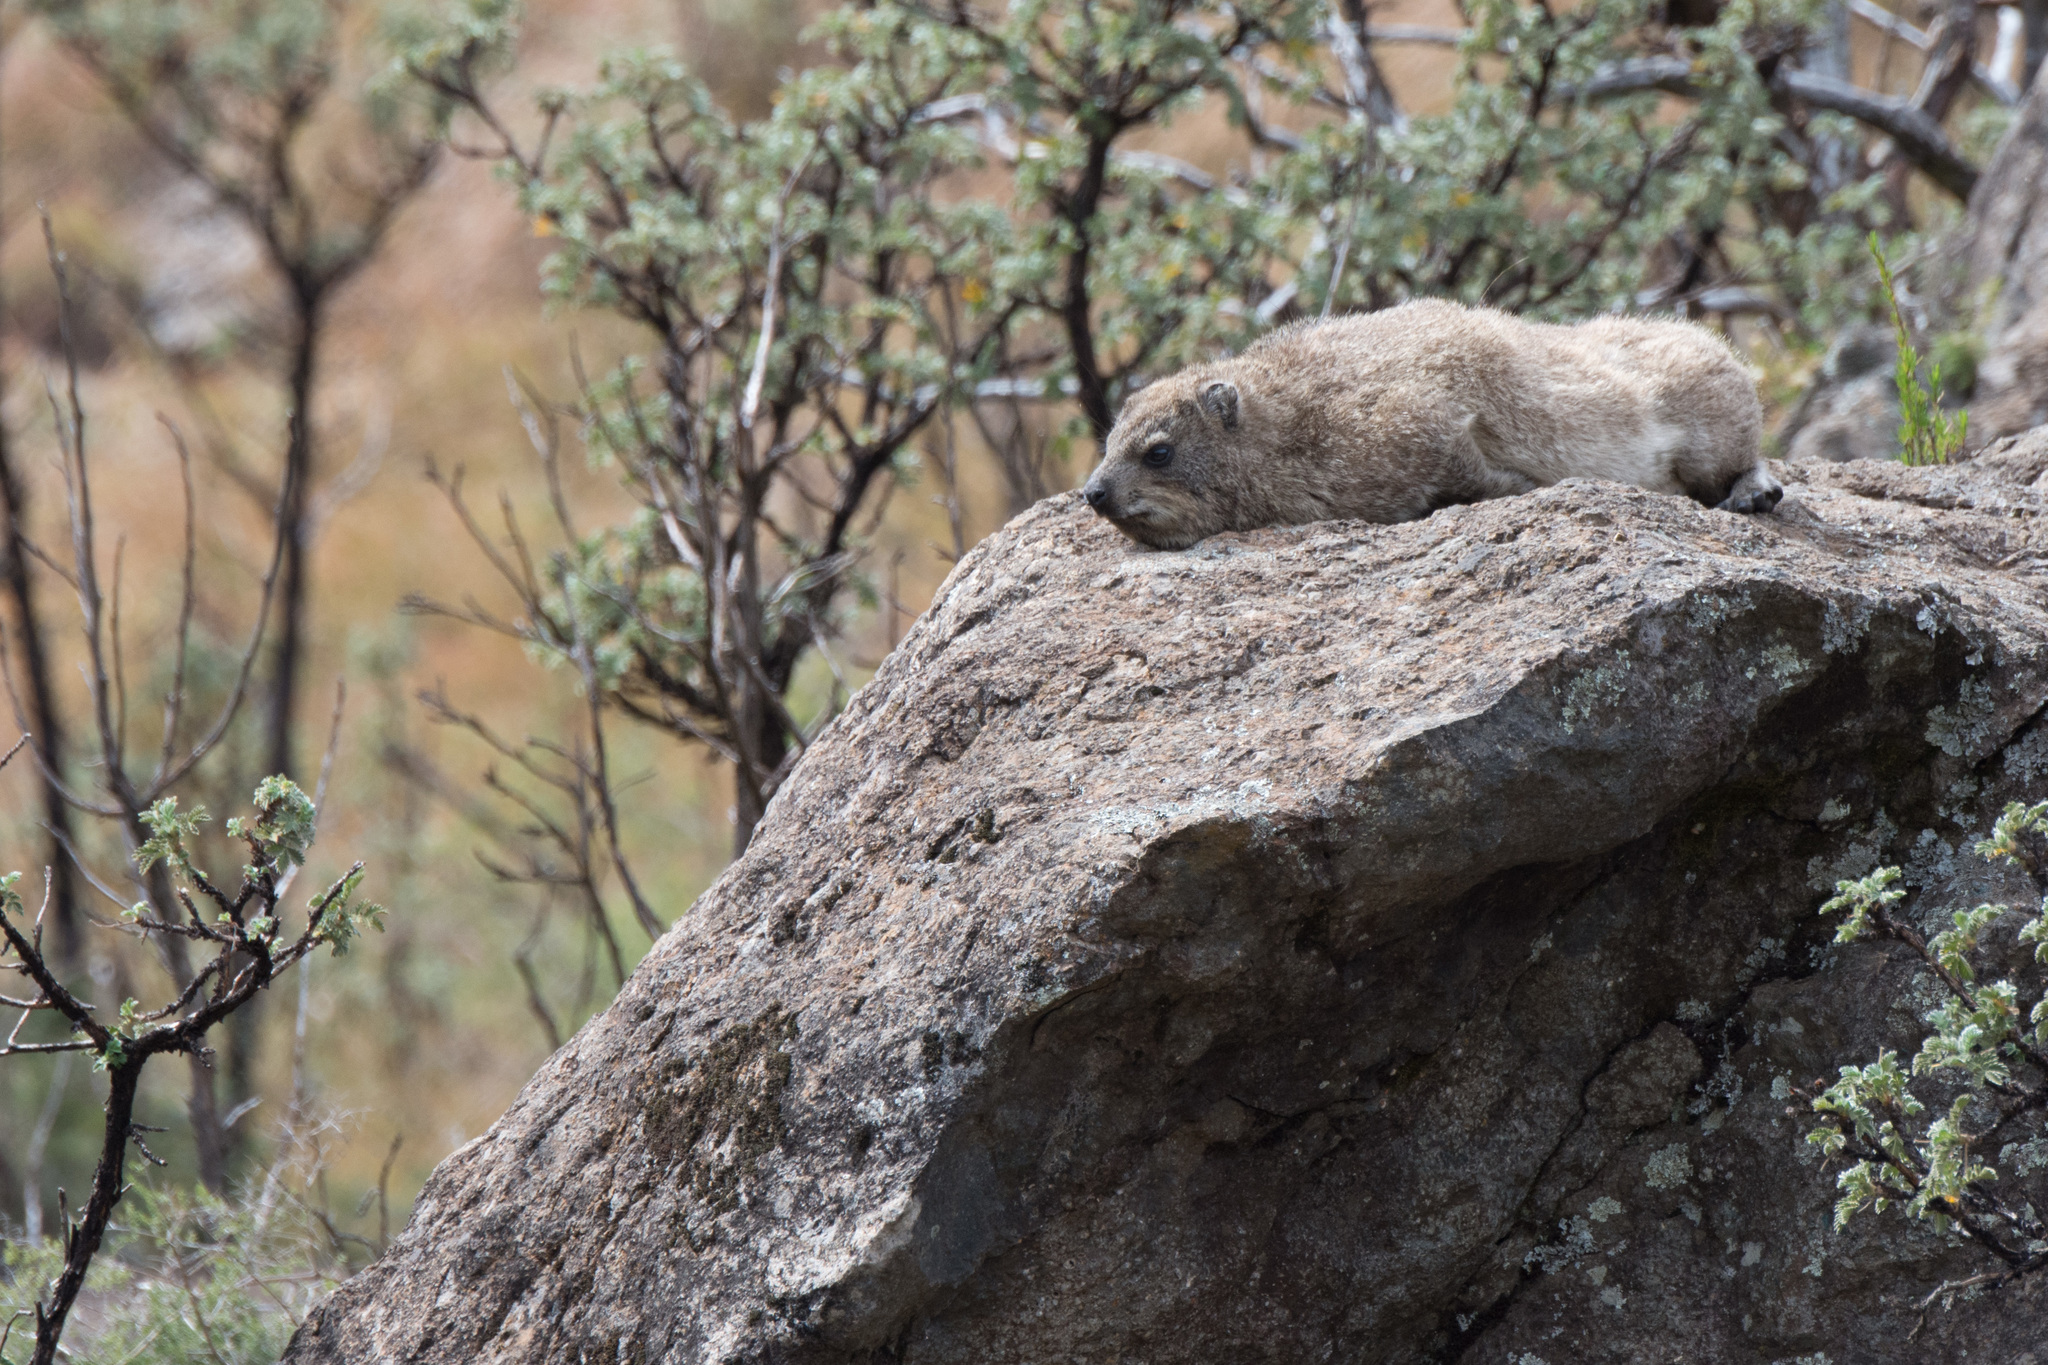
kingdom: Animalia
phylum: Chordata
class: Mammalia
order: Hyracoidea
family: Procaviidae
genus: Procavia
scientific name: Procavia capensis
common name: Rock hyrax
